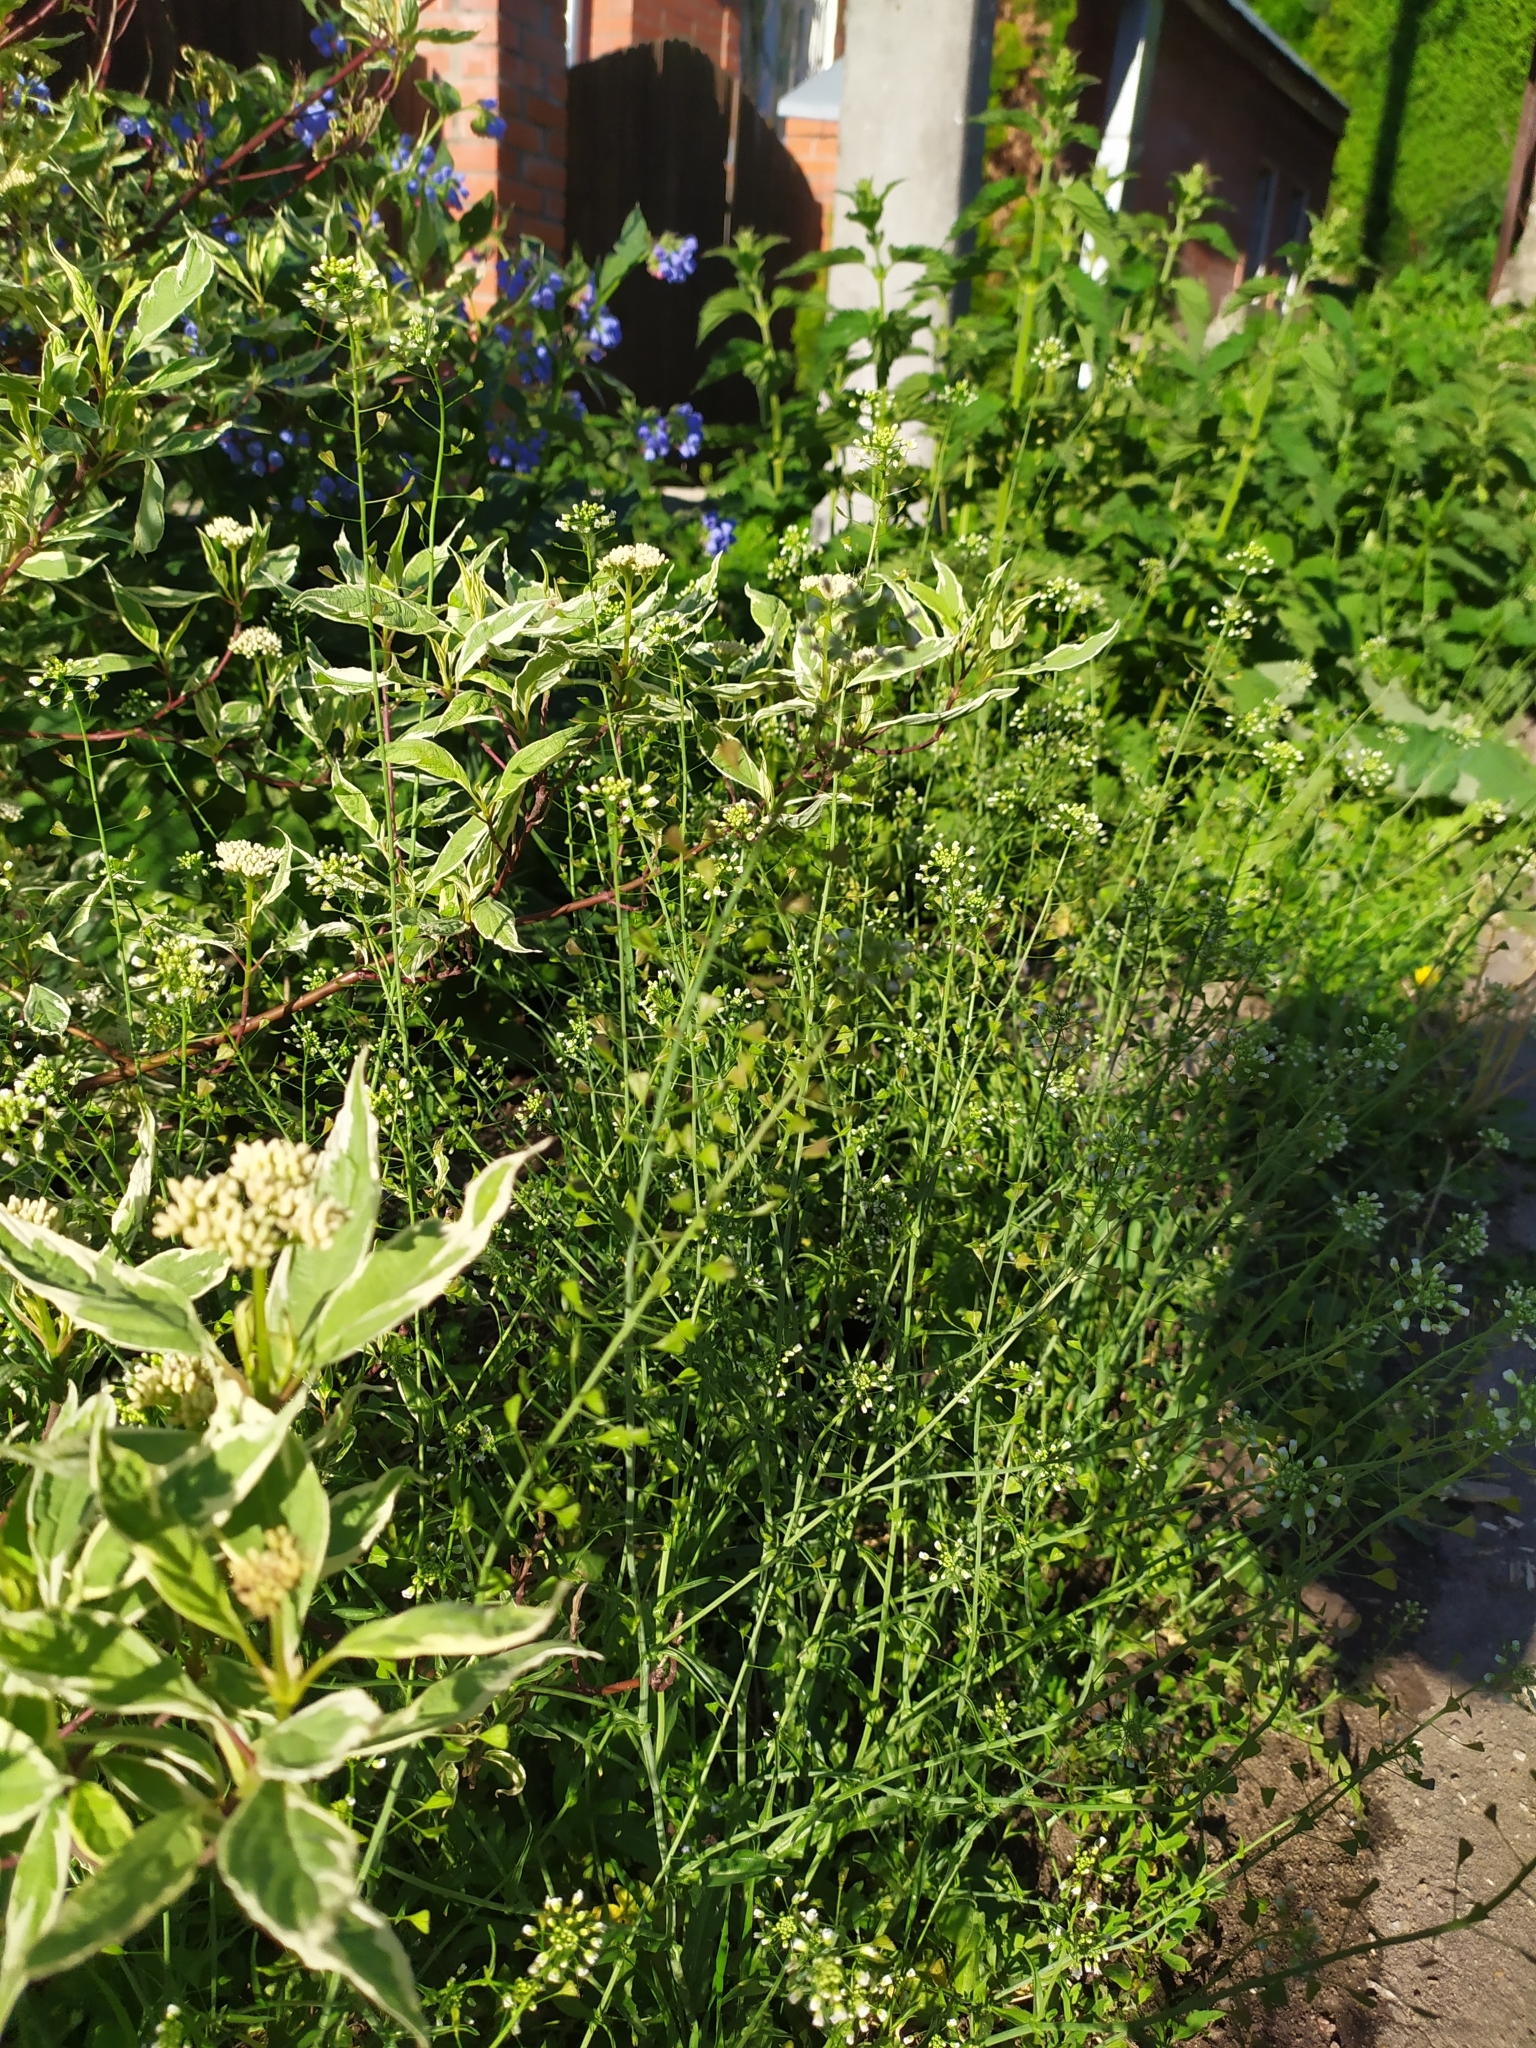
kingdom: Plantae
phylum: Tracheophyta
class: Magnoliopsida
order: Brassicales
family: Brassicaceae
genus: Capsella
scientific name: Capsella bursa-pastoris
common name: Shepherd's purse
